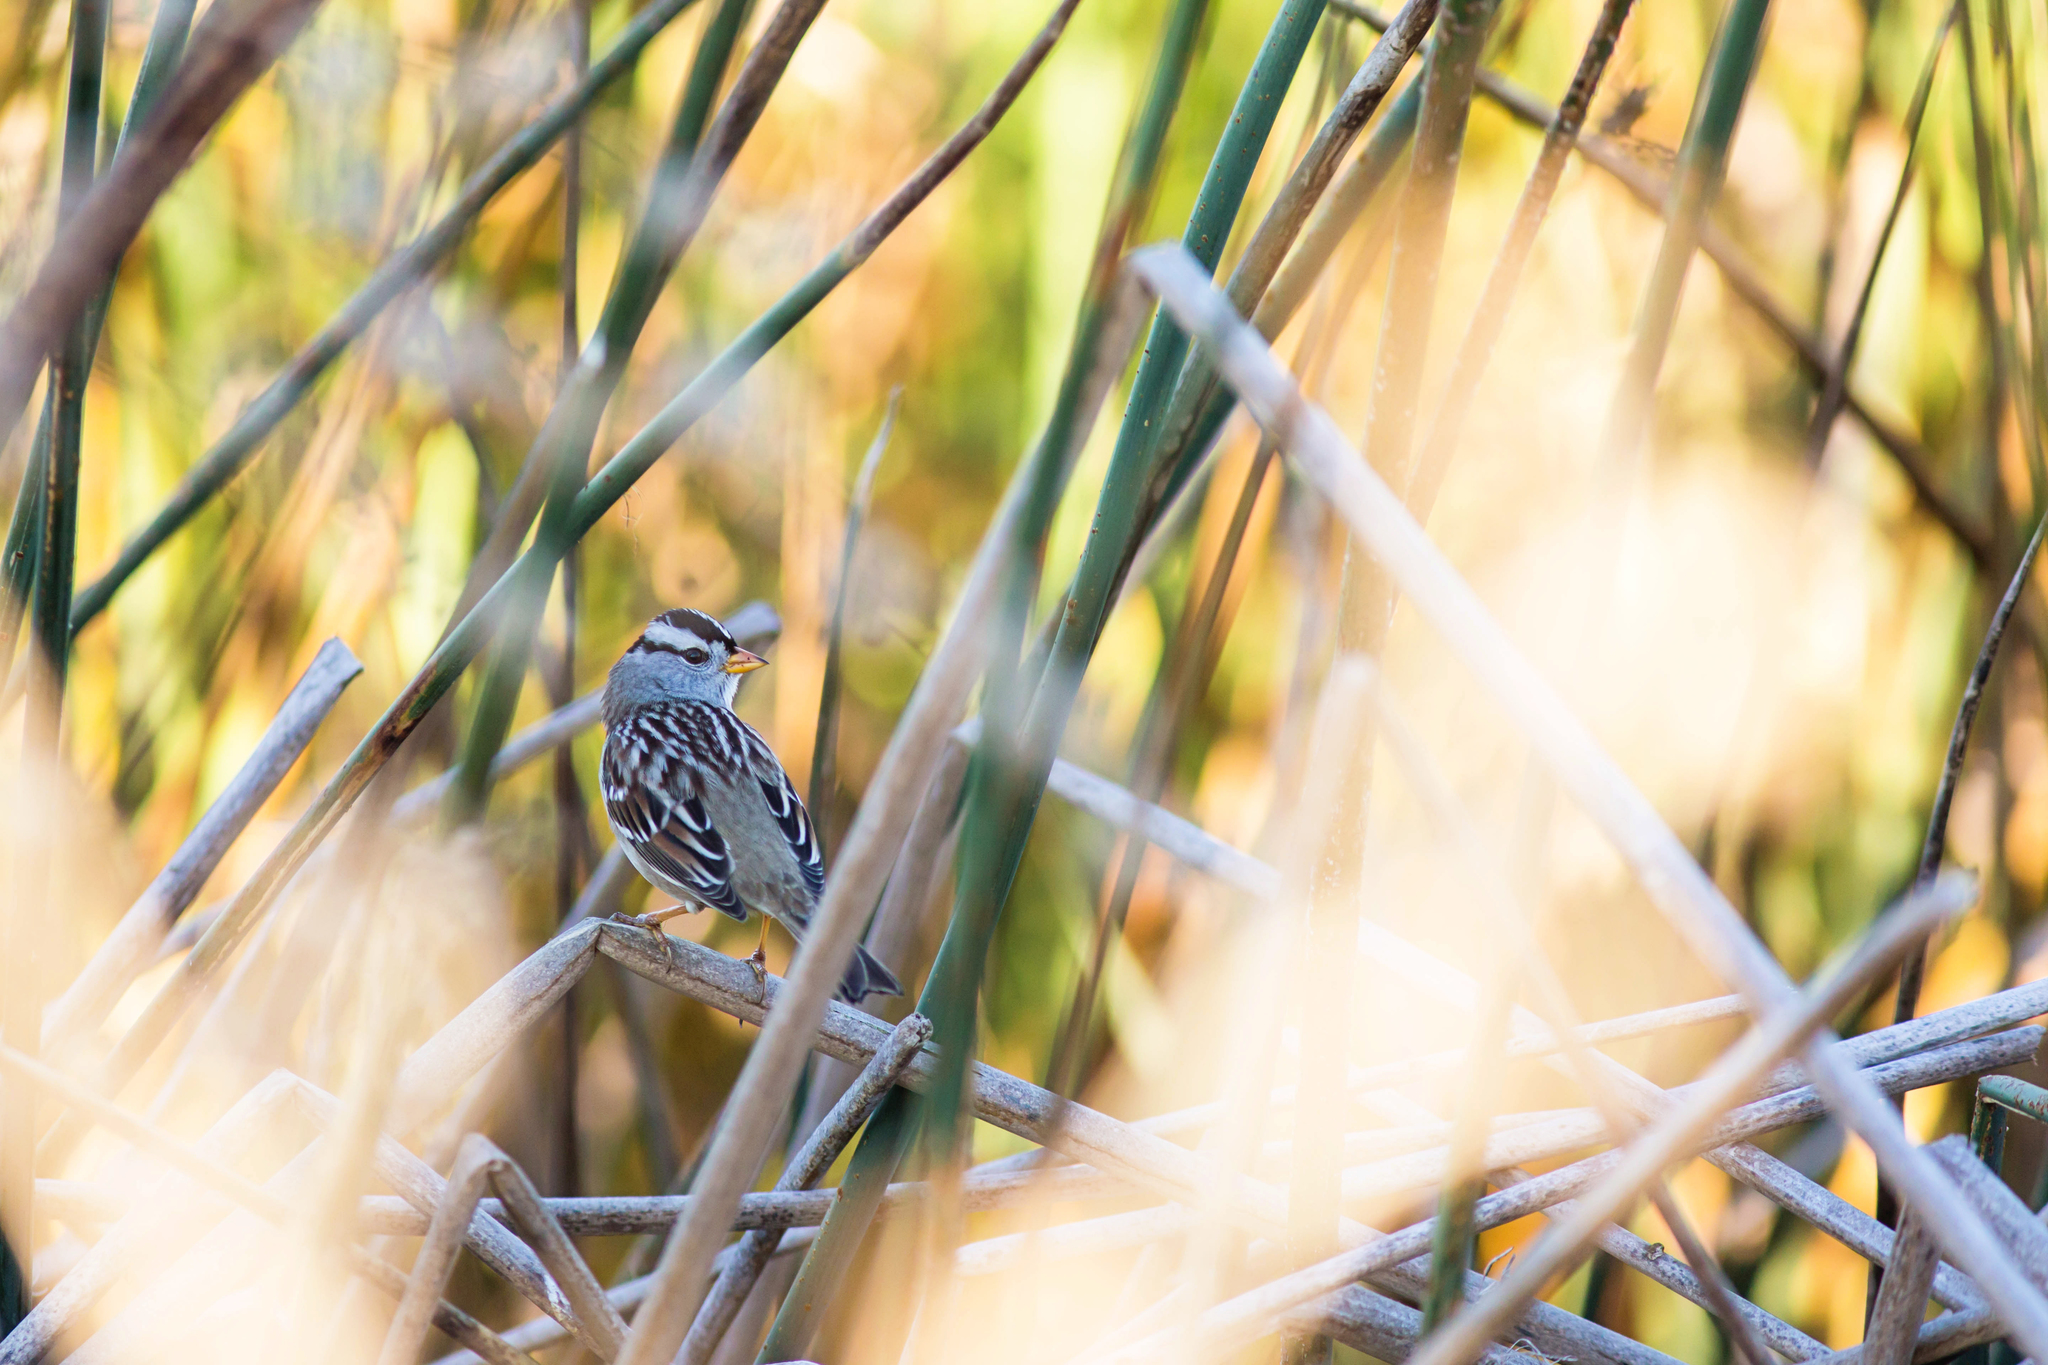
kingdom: Animalia
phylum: Chordata
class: Aves
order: Passeriformes
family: Passerellidae
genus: Zonotrichia
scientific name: Zonotrichia leucophrys
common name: White-crowned sparrow
